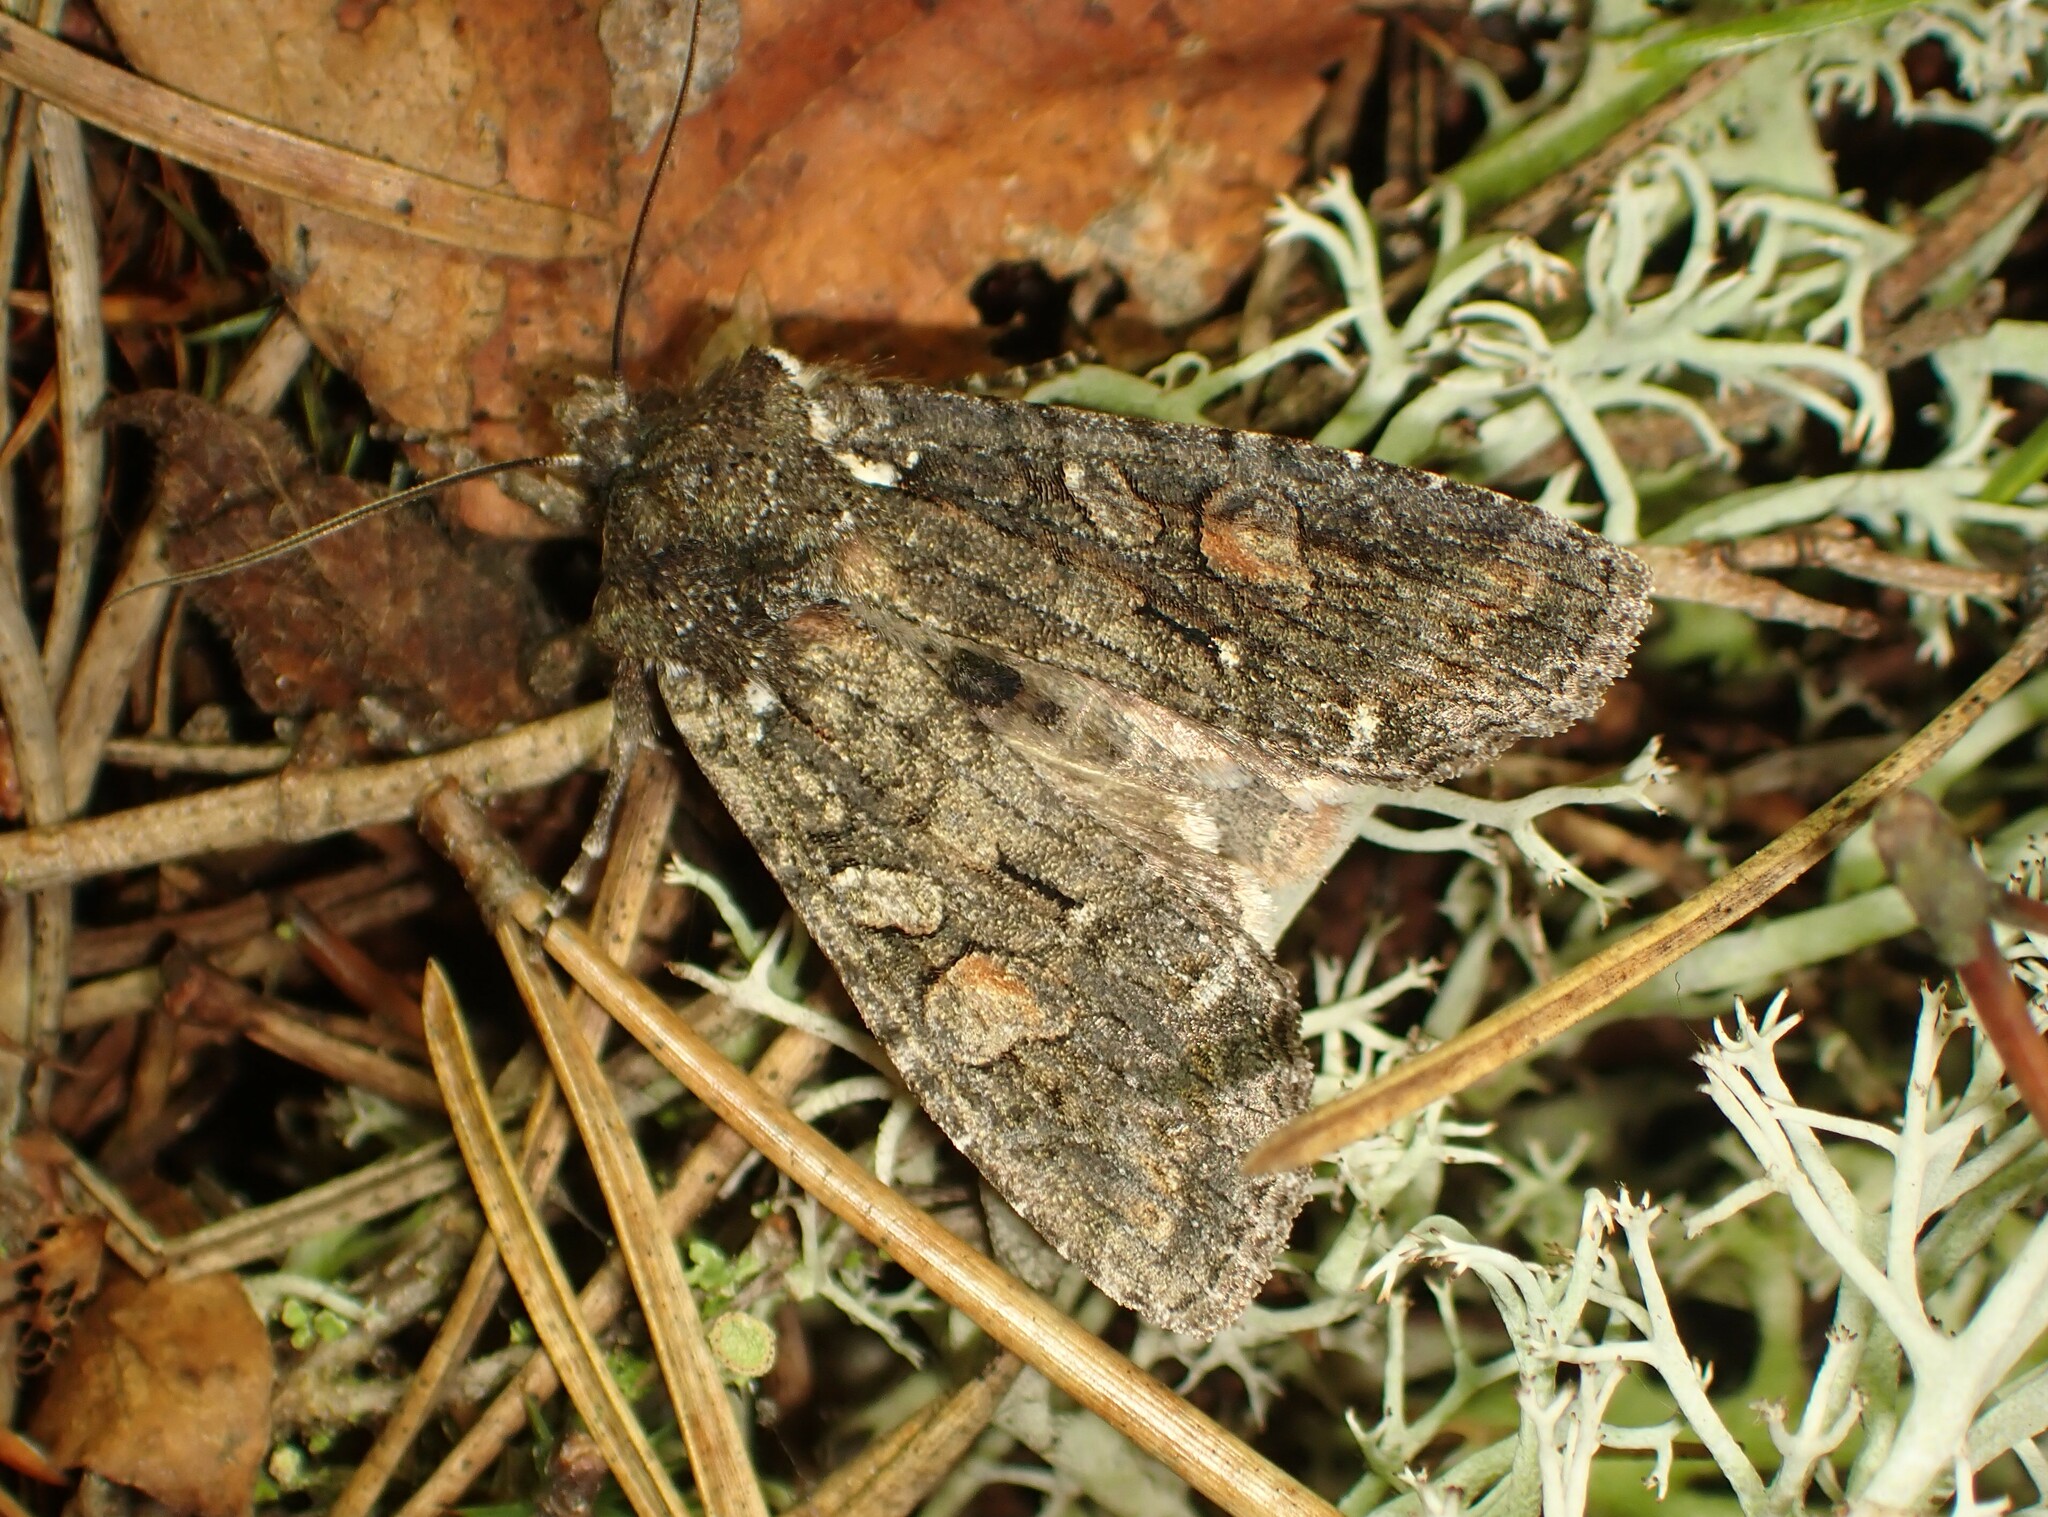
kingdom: Animalia
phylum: Arthropoda
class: Insecta
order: Lepidoptera
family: Noctuidae
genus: Lithophane
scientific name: Lithophane pexata
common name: Plush-naped pinion moth
